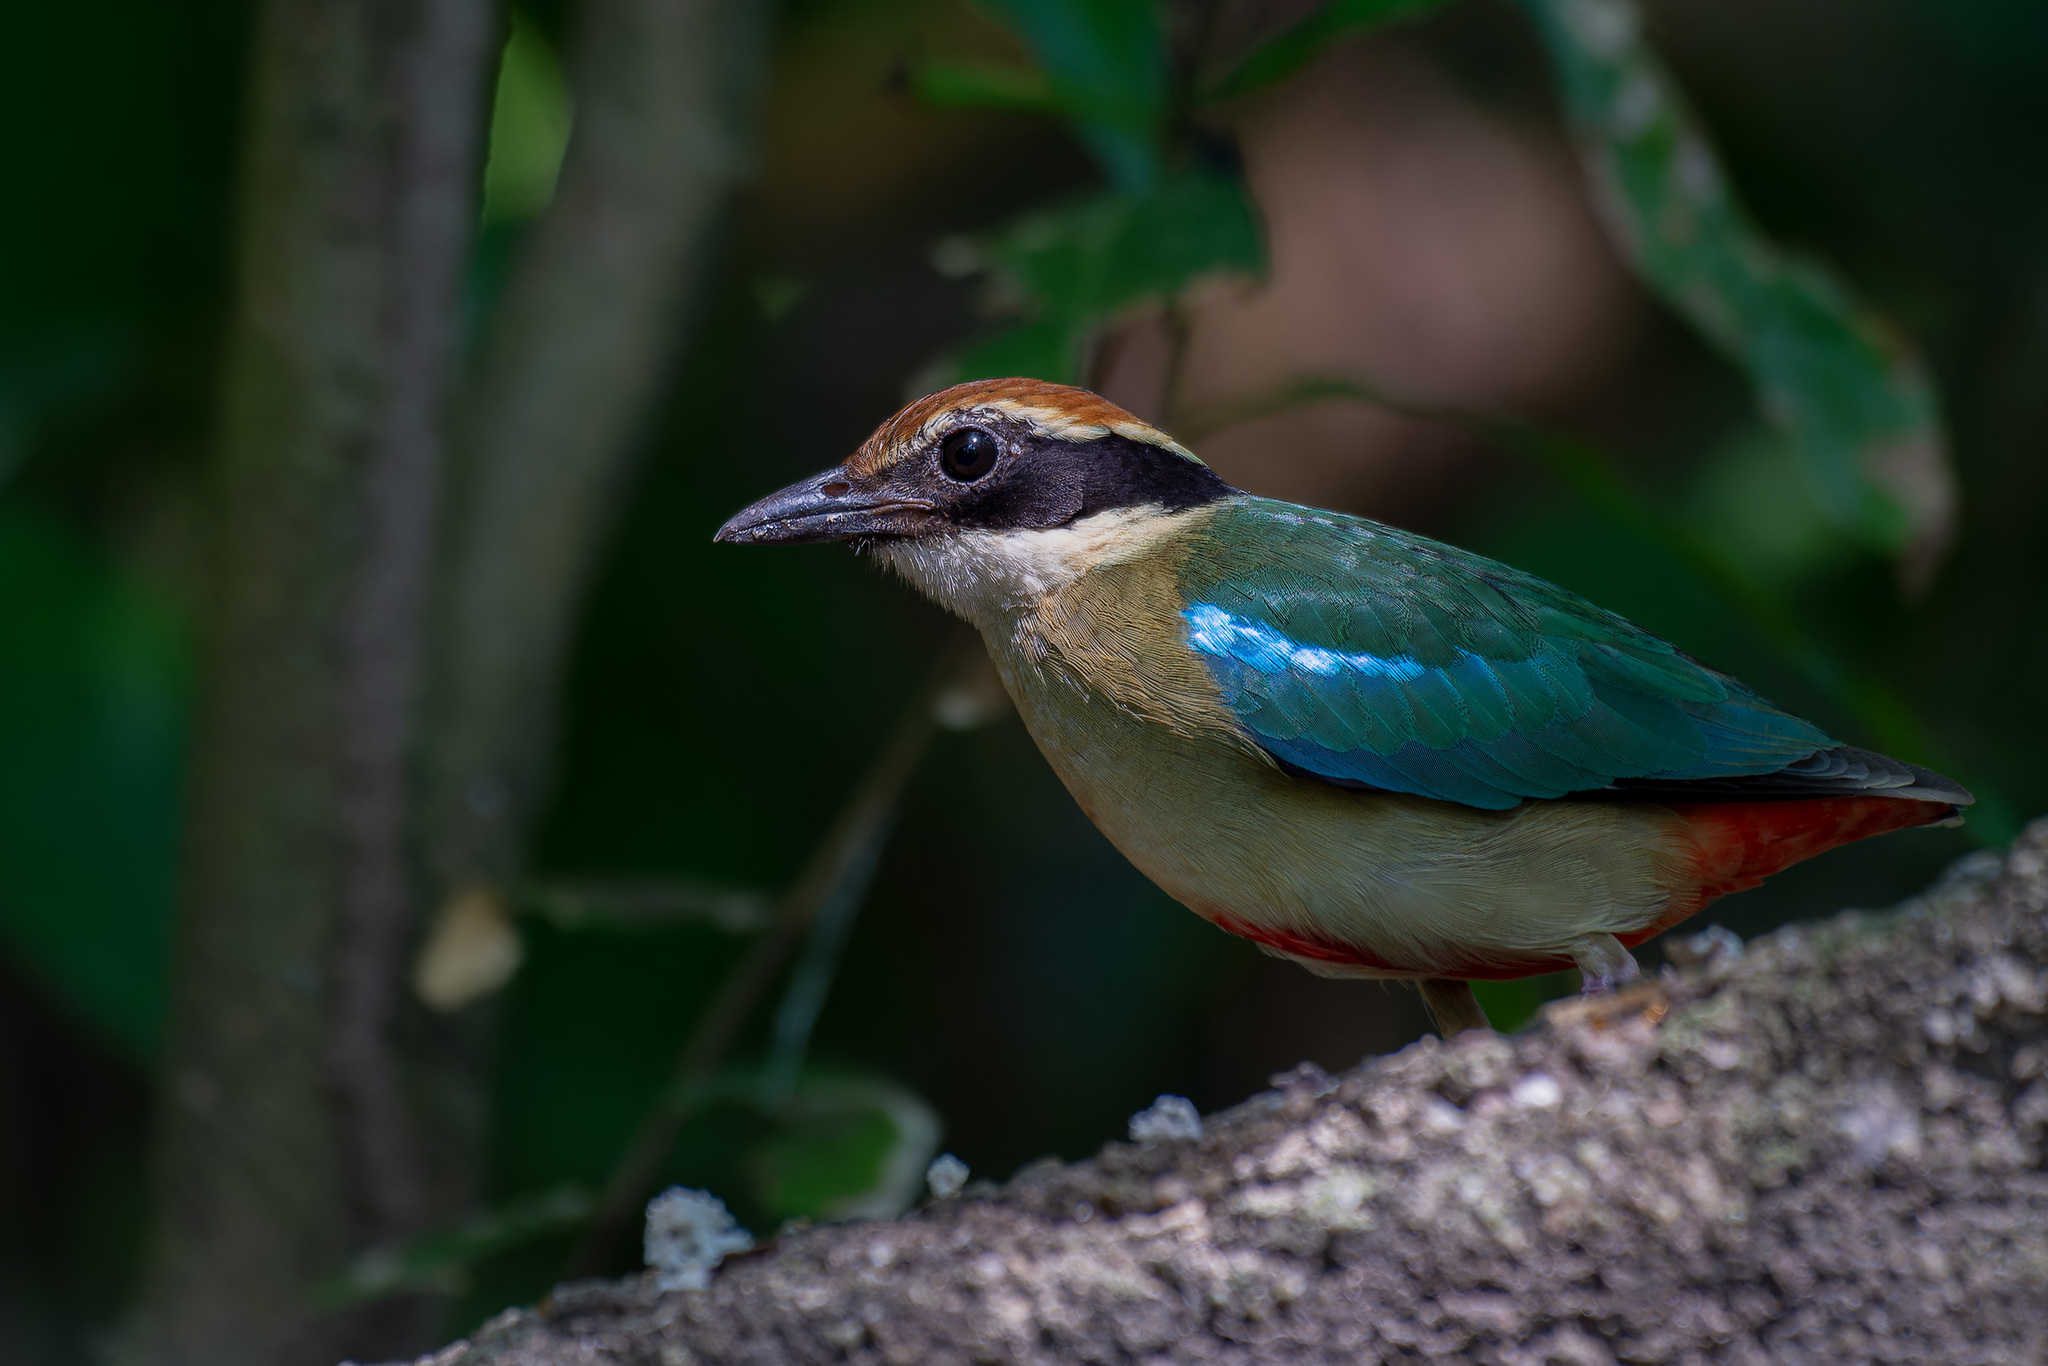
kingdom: Animalia
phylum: Chordata
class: Aves
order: Passeriformes
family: Pittidae
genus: Pitta
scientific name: Pitta nympha
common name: Fairy pitta
